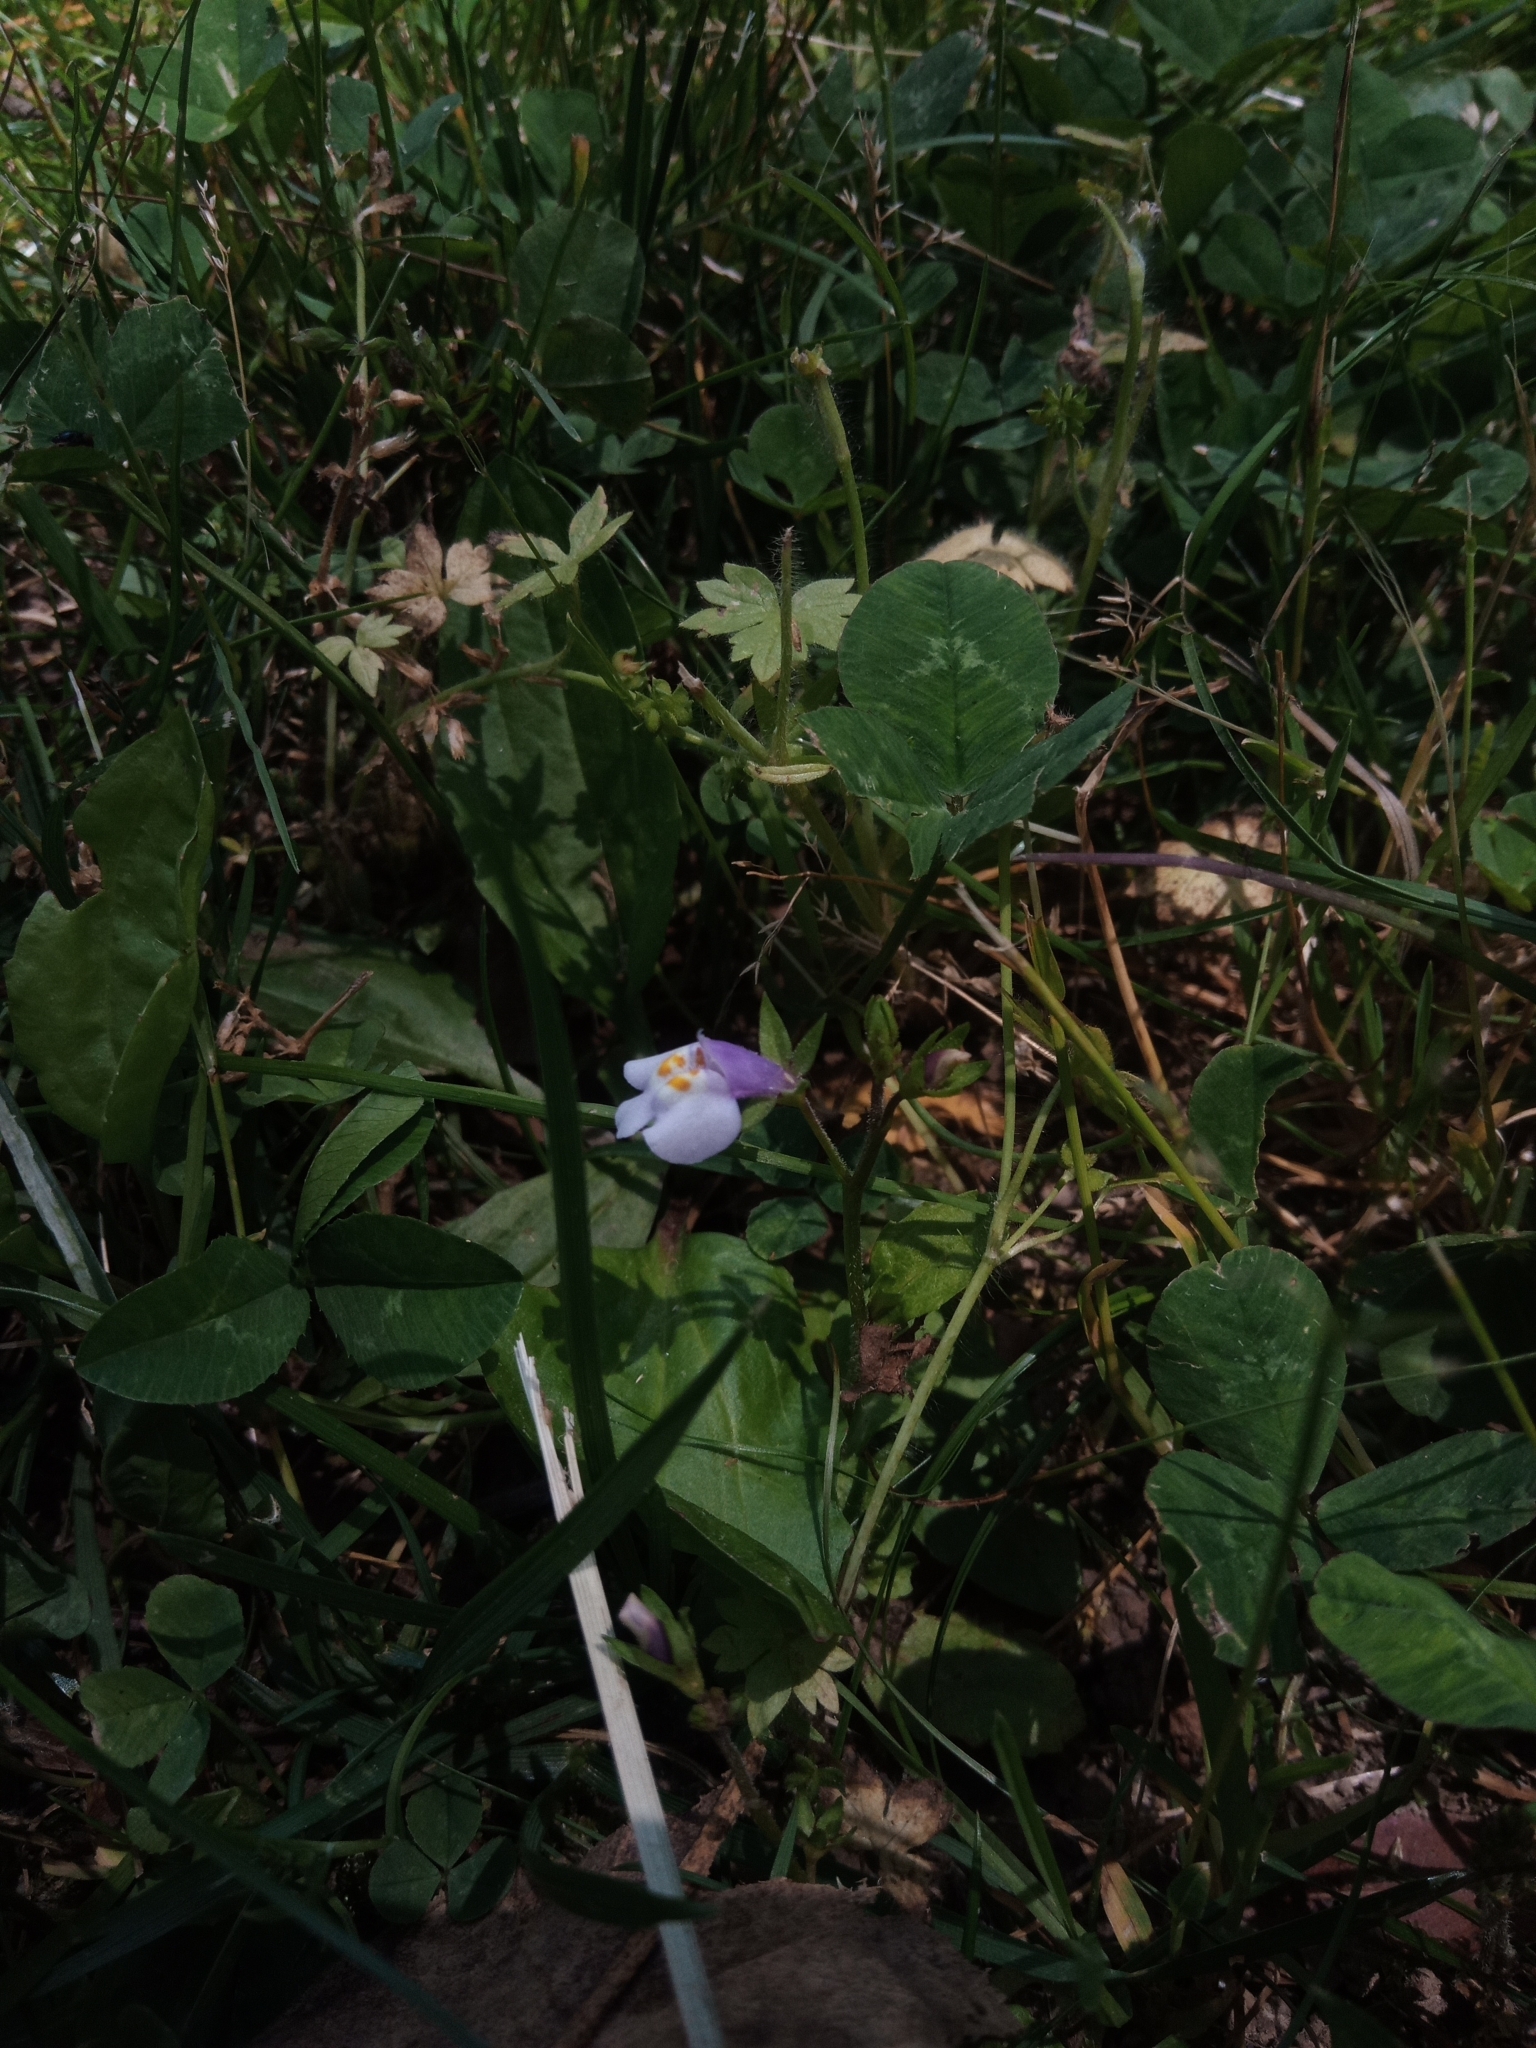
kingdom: Plantae
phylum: Tracheophyta
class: Magnoliopsida
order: Lamiales
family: Mazaceae
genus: Mazus
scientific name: Mazus pumilus
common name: Japanese mazus
